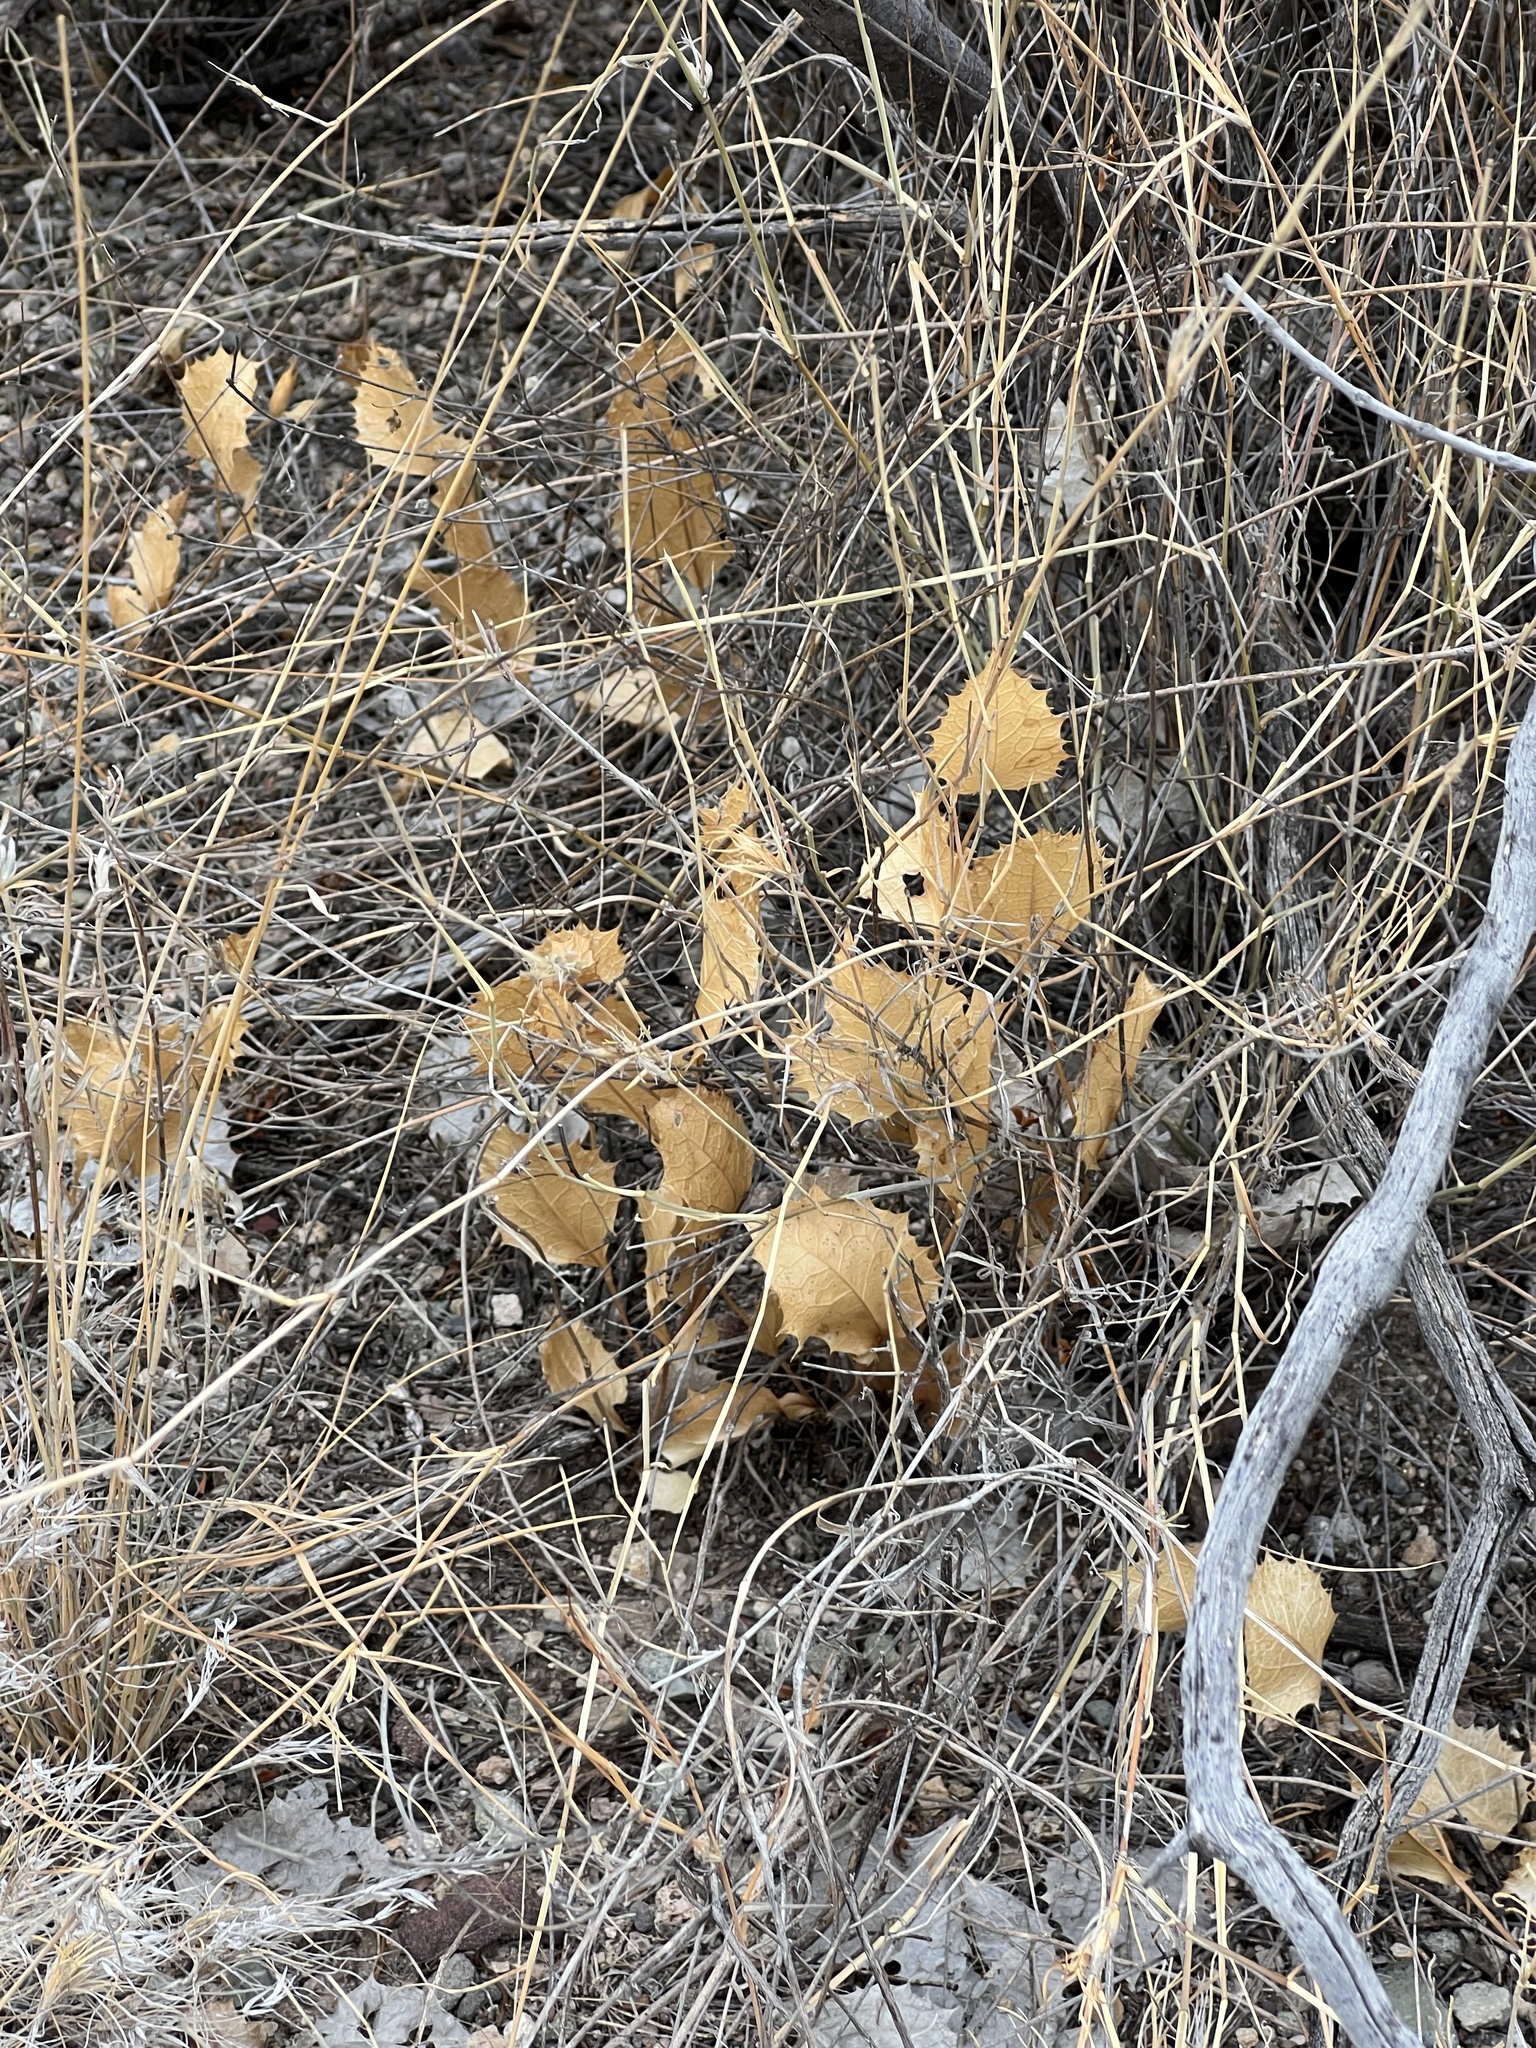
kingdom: Plantae
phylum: Tracheophyta
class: Magnoliopsida
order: Asterales
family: Asteraceae
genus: Acourtia
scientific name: Acourtia nana
